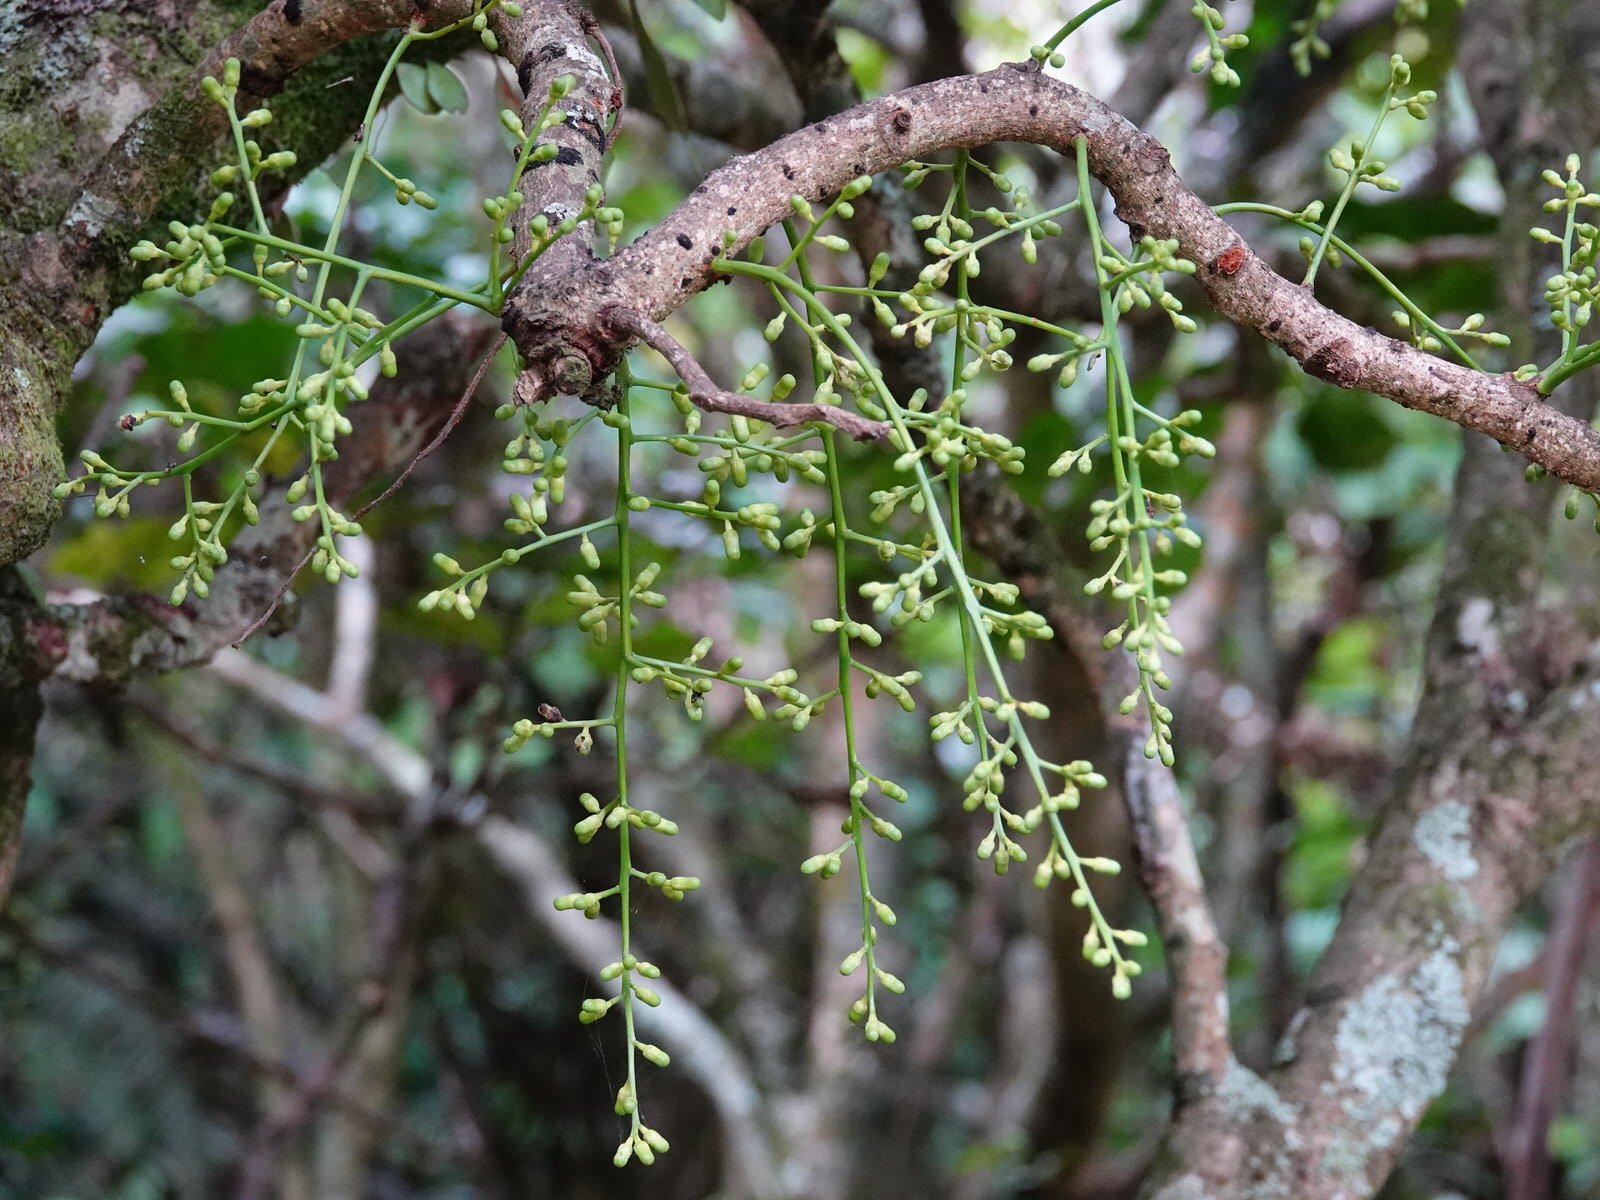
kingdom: Plantae
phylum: Tracheophyta
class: Magnoliopsida
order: Sapindales
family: Meliaceae
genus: Didymocheton
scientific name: Didymocheton spectabilis
